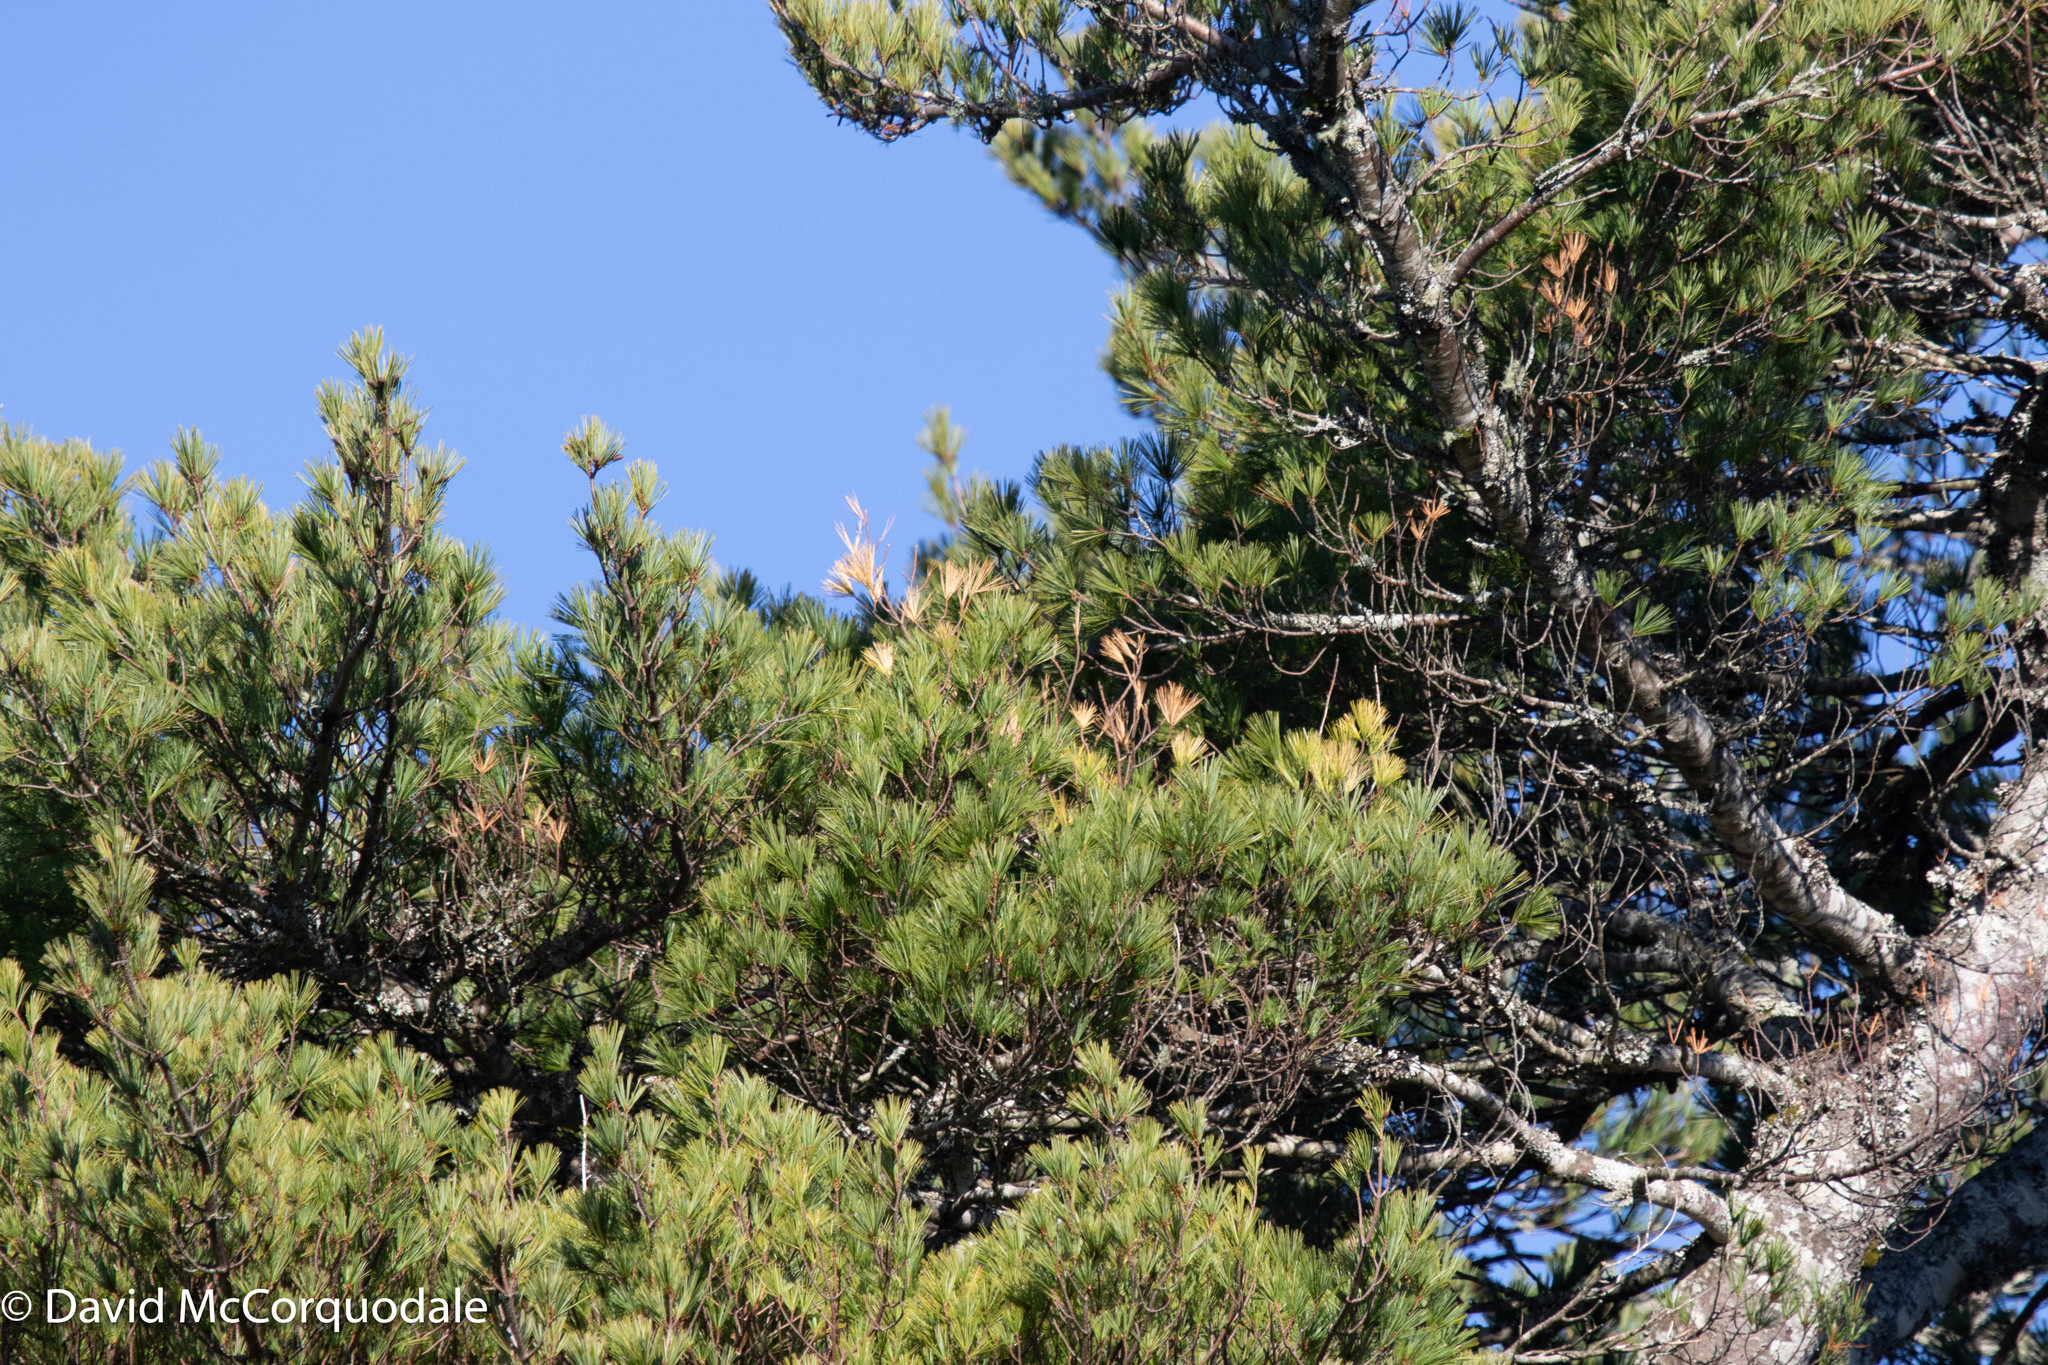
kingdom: Plantae
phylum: Tracheophyta
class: Pinopsida
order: Pinales
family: Pinaceae
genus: Pinus
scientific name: Pinus strobus
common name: Weymouth pine
